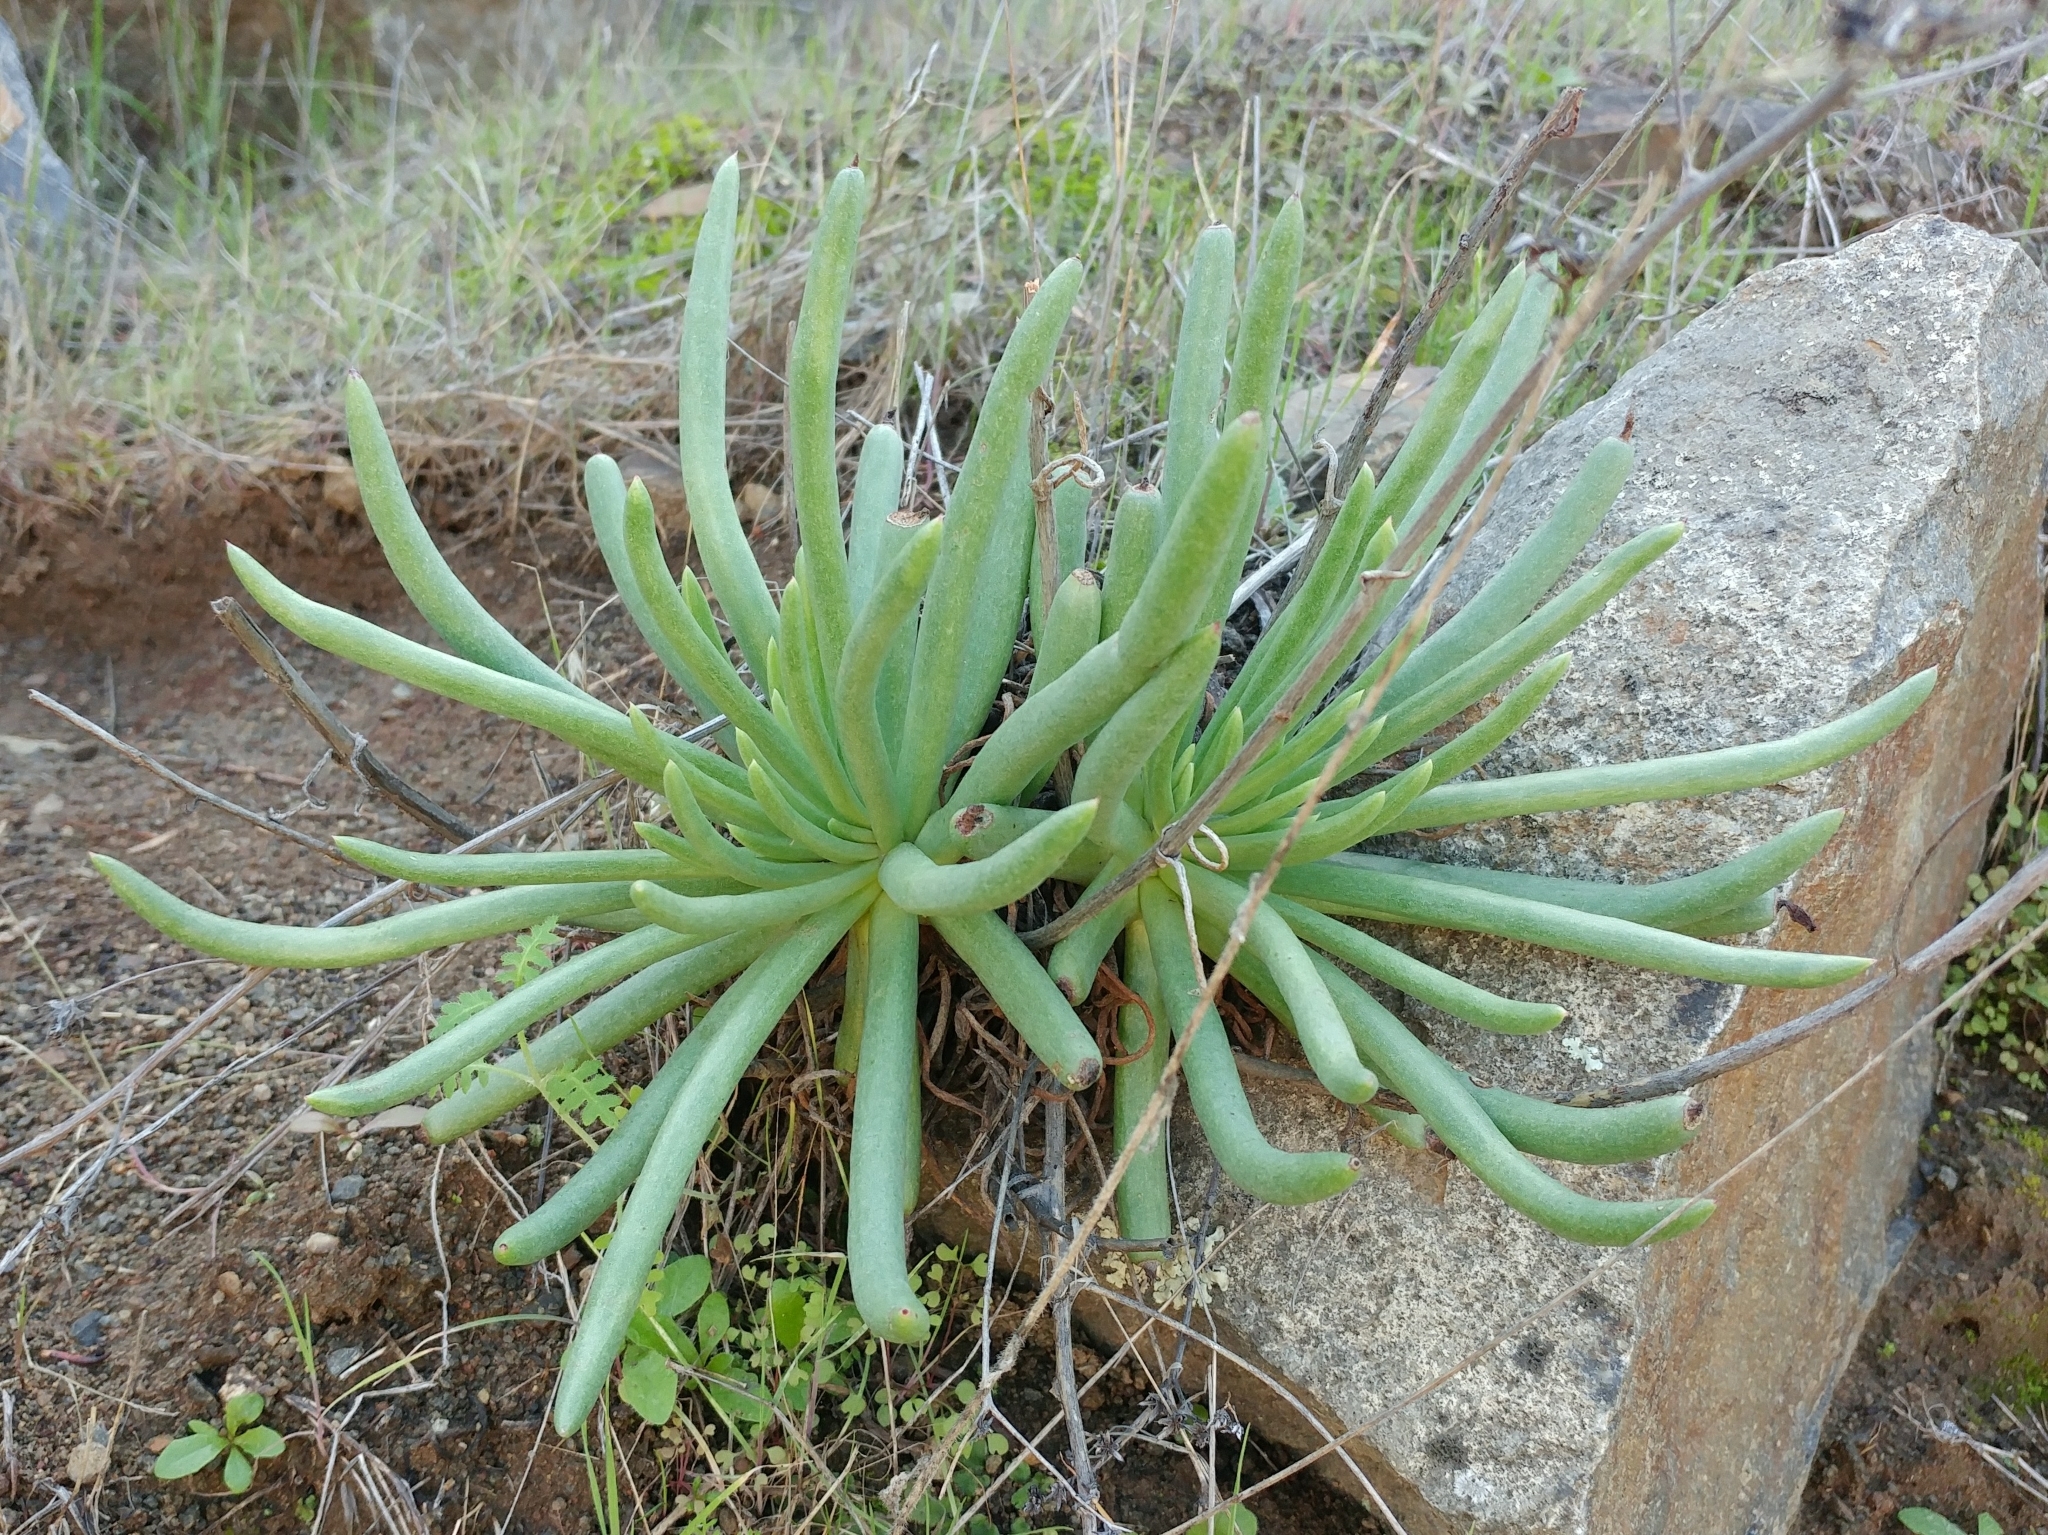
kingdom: Plantae
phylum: Tracheophyta
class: Magnoliopsida
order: Saxifragales
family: Crassulaceae
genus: Dudleya
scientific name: Dudleya edulis
